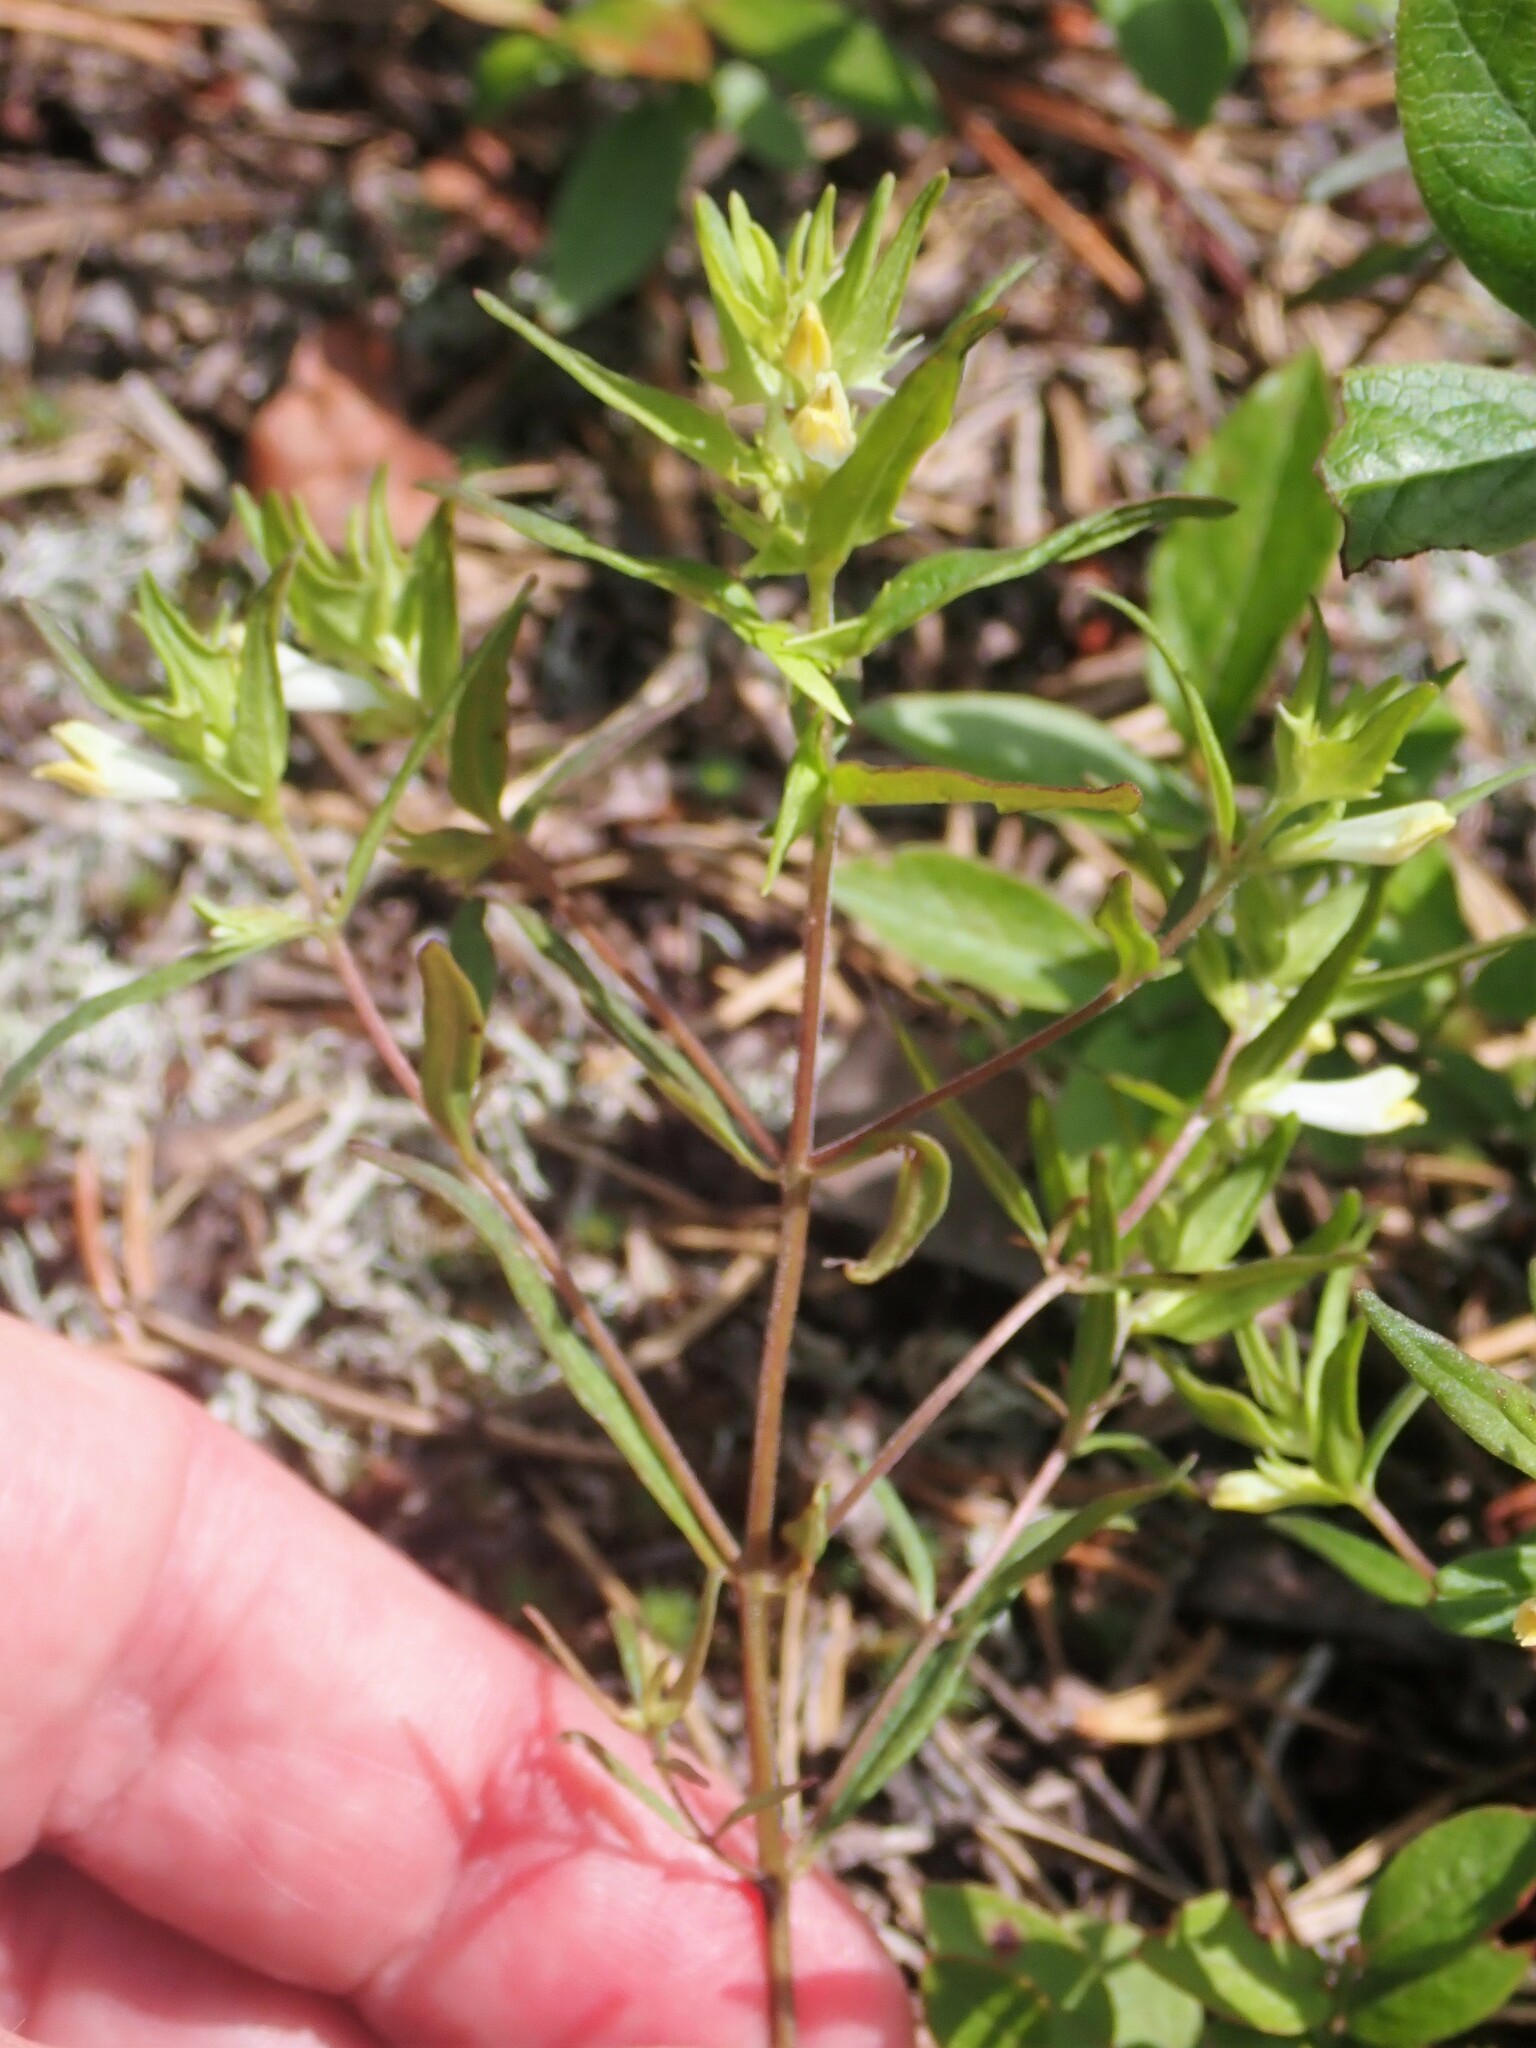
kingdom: Plantae
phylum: Tracheophyta
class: Magnoliopsida
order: Lamiales
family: Orobanchaceae
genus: Melampyrum
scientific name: Melampyrum lineare
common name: American cow-wheat
